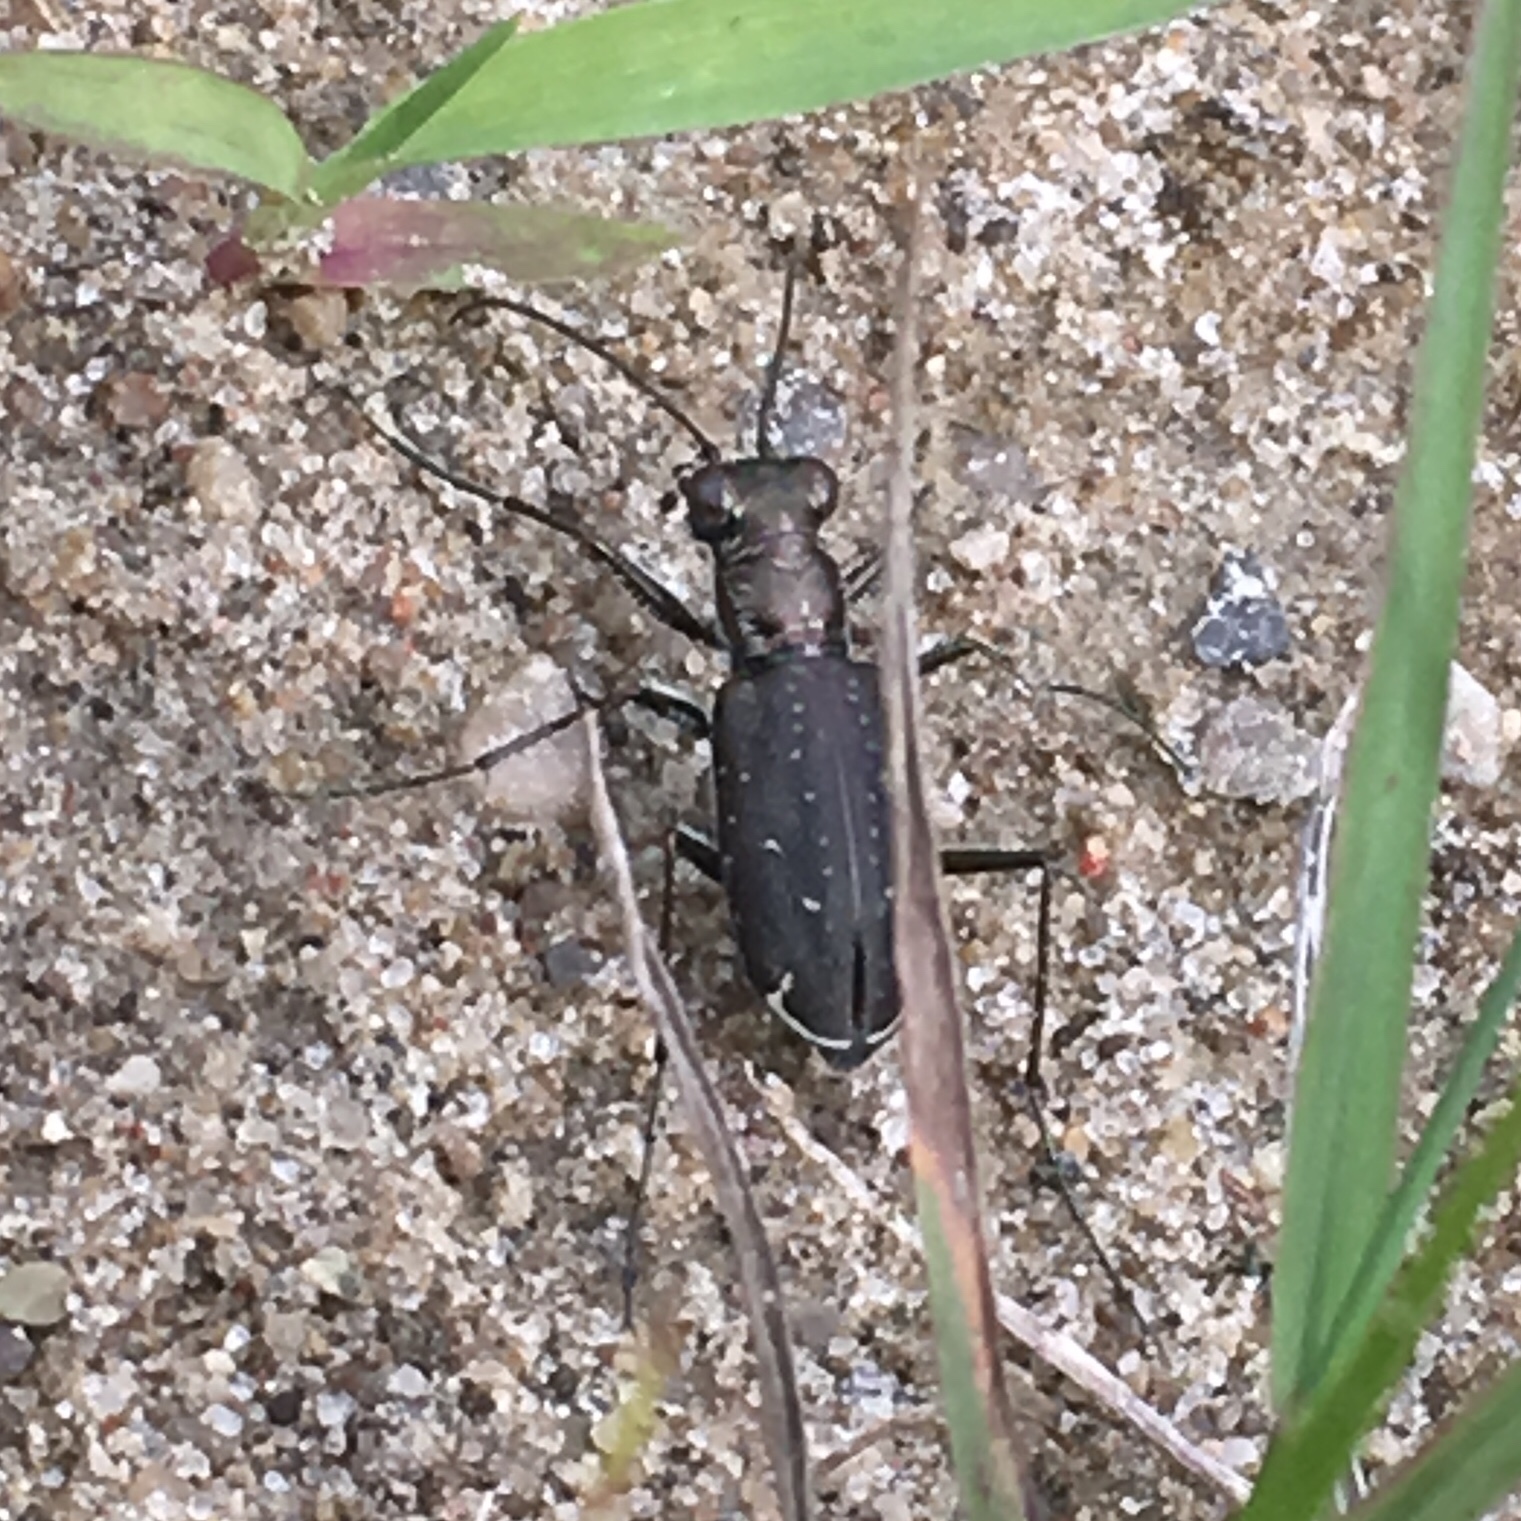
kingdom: Animalia
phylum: Arthropoda
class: Insecta
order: Coleoptera
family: Carabidae
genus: Cicindela
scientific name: Cicindela punctulata
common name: Punctured tiger beetle
